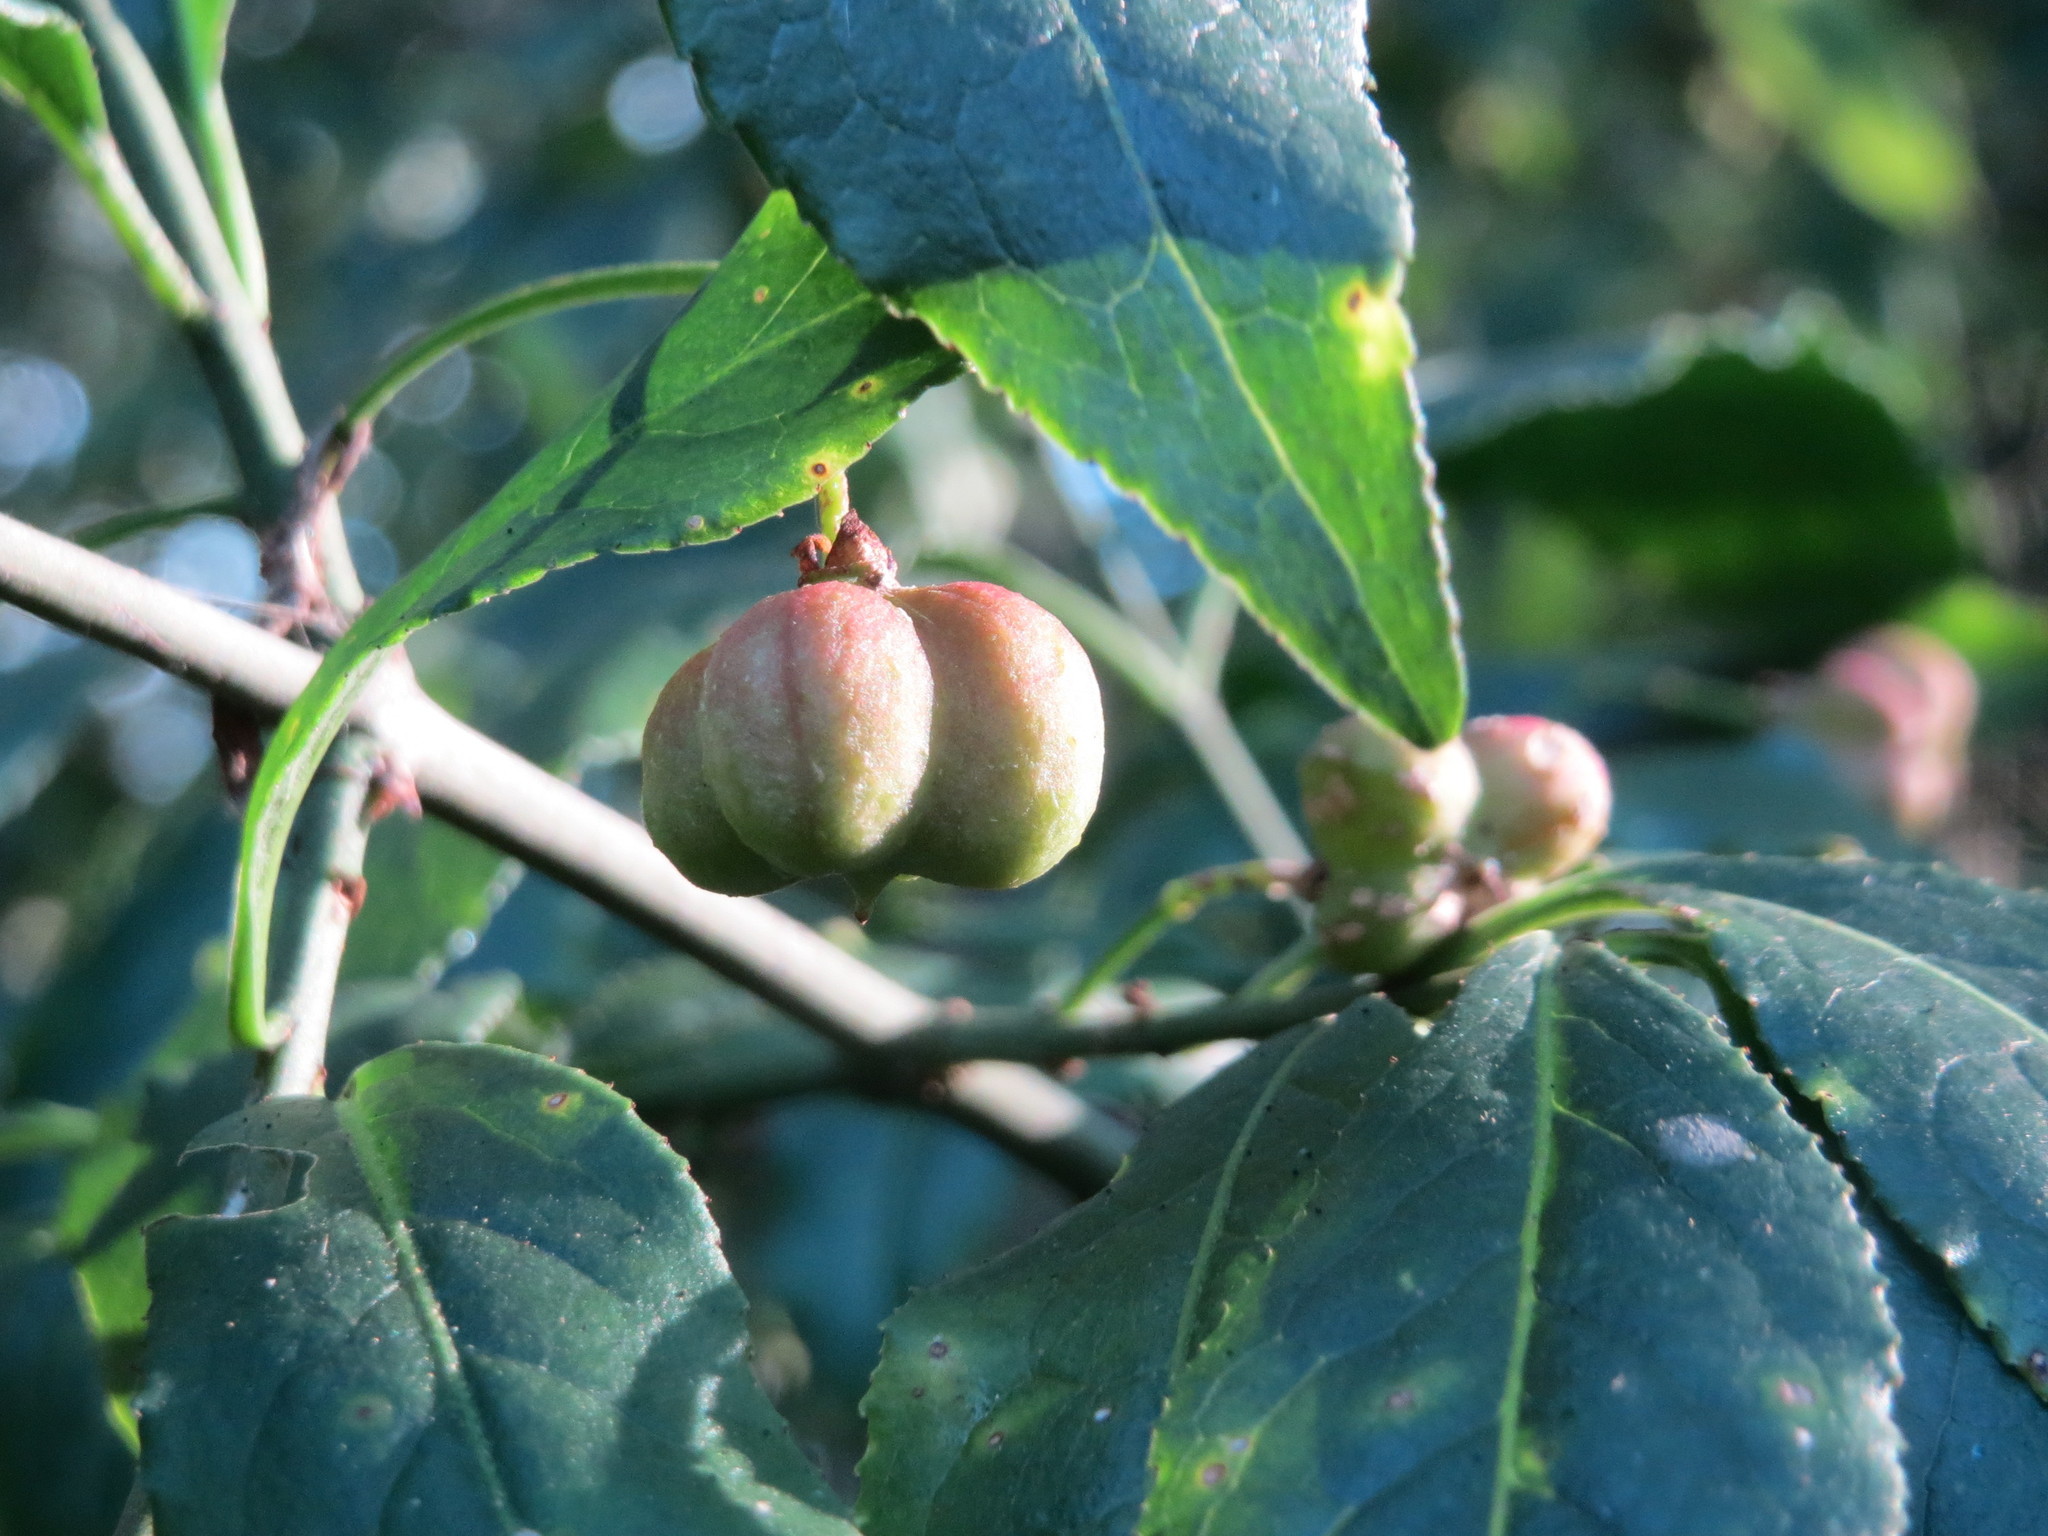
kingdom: Plantae
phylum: Tracheophyta
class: Magnoliopsida
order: Celastrales
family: Celastraceae
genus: Euonymus
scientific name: Euonymus europaeus
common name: Spindle
